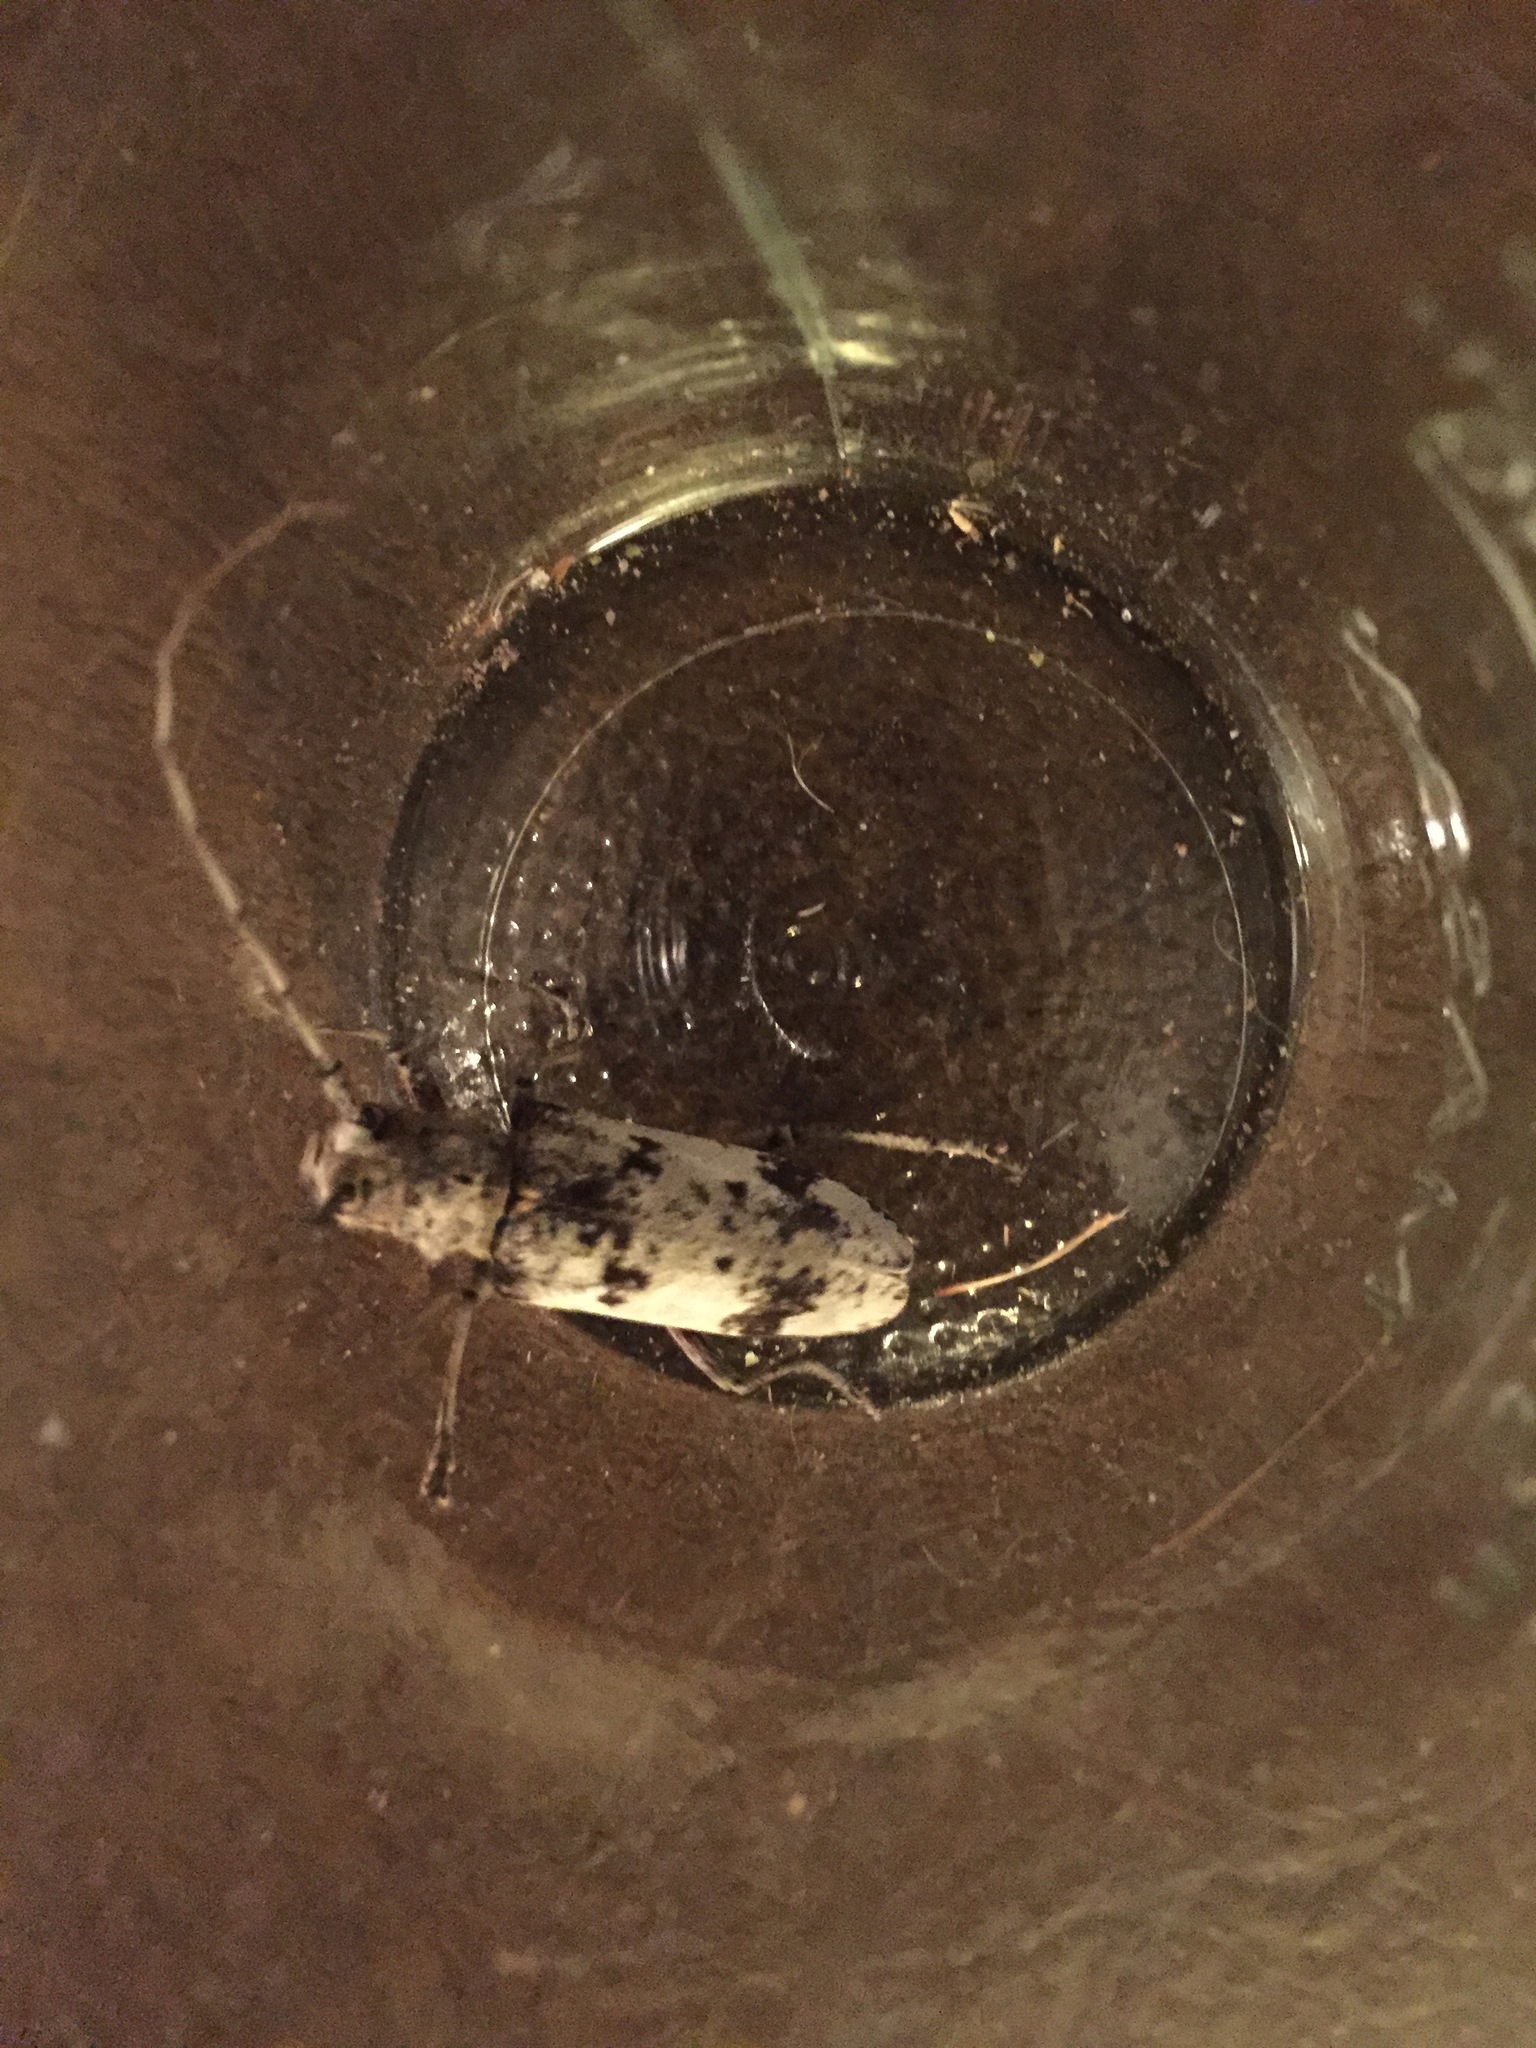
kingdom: Animalia
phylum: Arthropoda
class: Insecta
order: Coleoptera
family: Cerambycidae
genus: Goes
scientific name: Goes tigrinus
